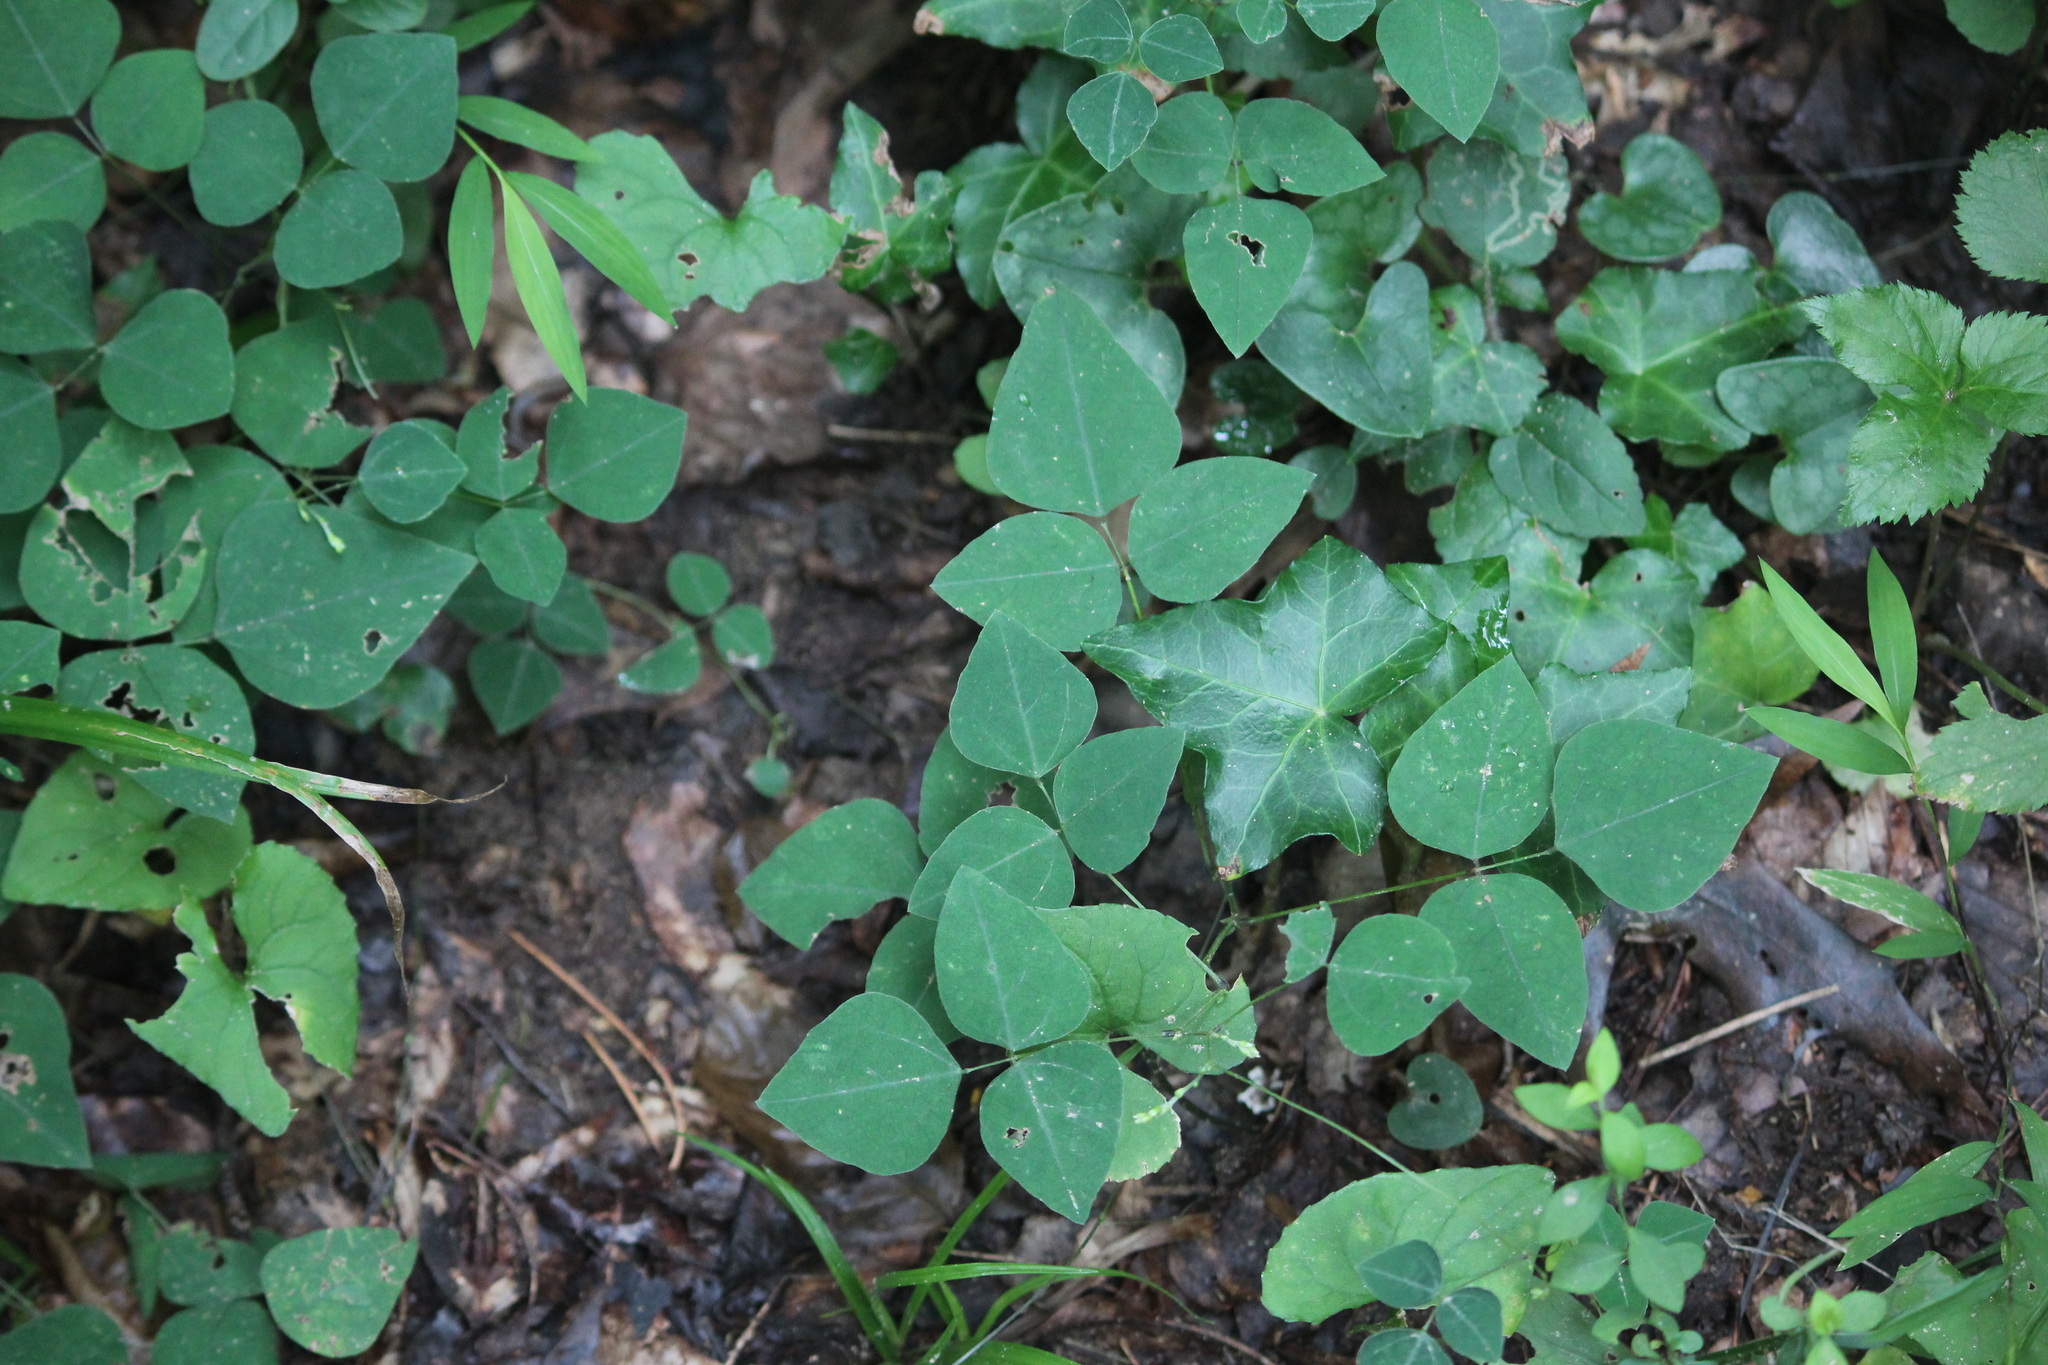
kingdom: Plantae
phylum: Tracheophyta
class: Magnoliopsida
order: Fabales
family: Fabaceae
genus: Amphicarpaea
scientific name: Amphicarpaea bracteata
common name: American hog peanut
